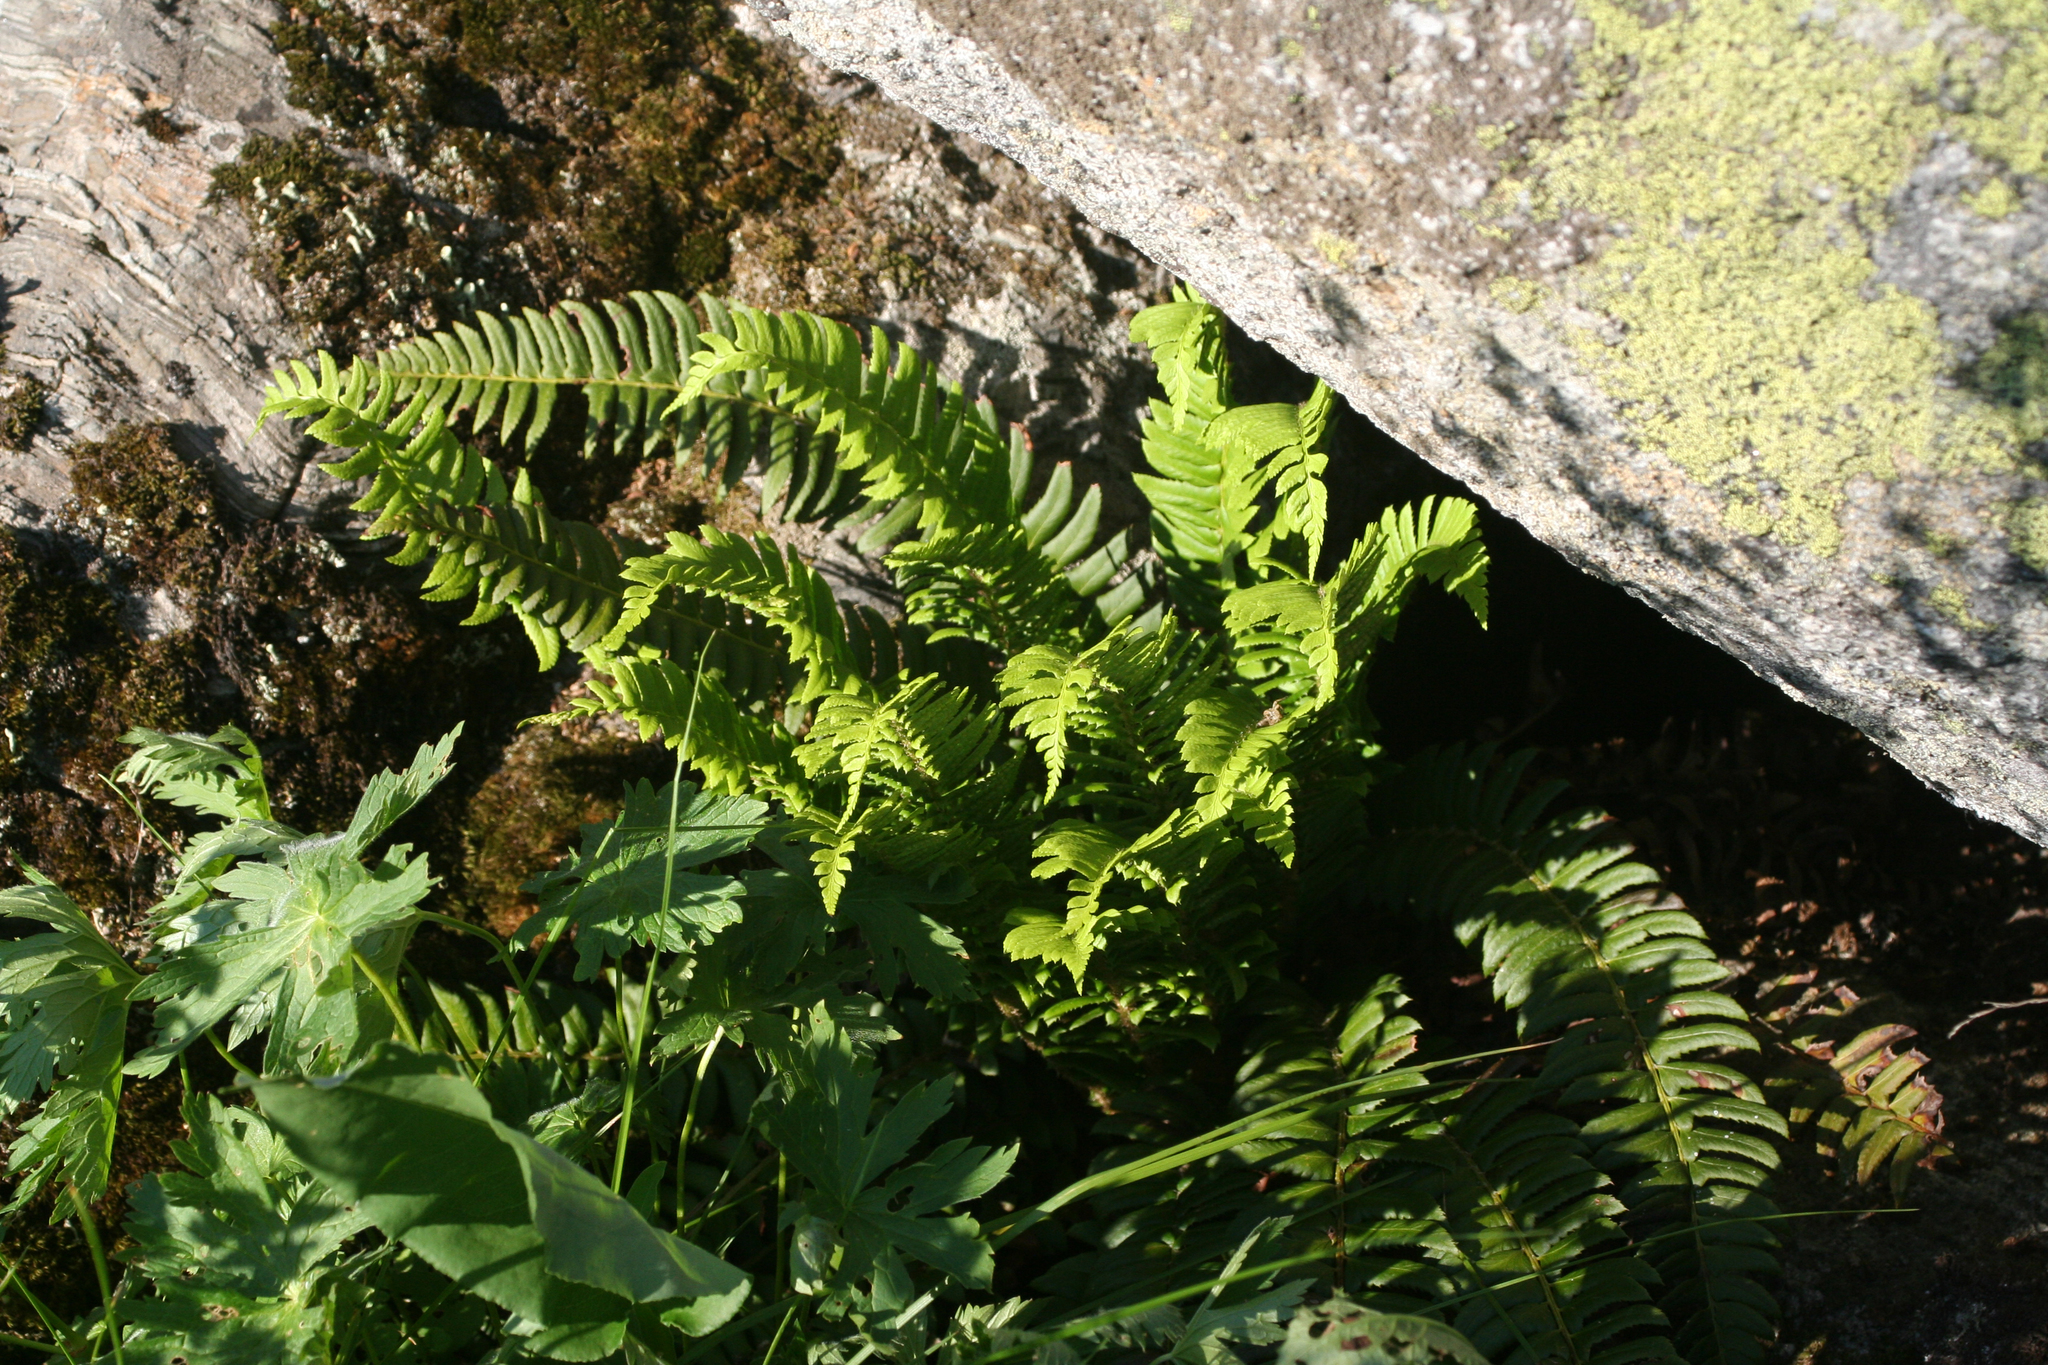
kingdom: Plantae
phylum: Tracheophyta
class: Polypodiopsida
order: Polypodiales
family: Dryopteridaceae
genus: Polystichum
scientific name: Polystichum lonchitis
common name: Holly fern
